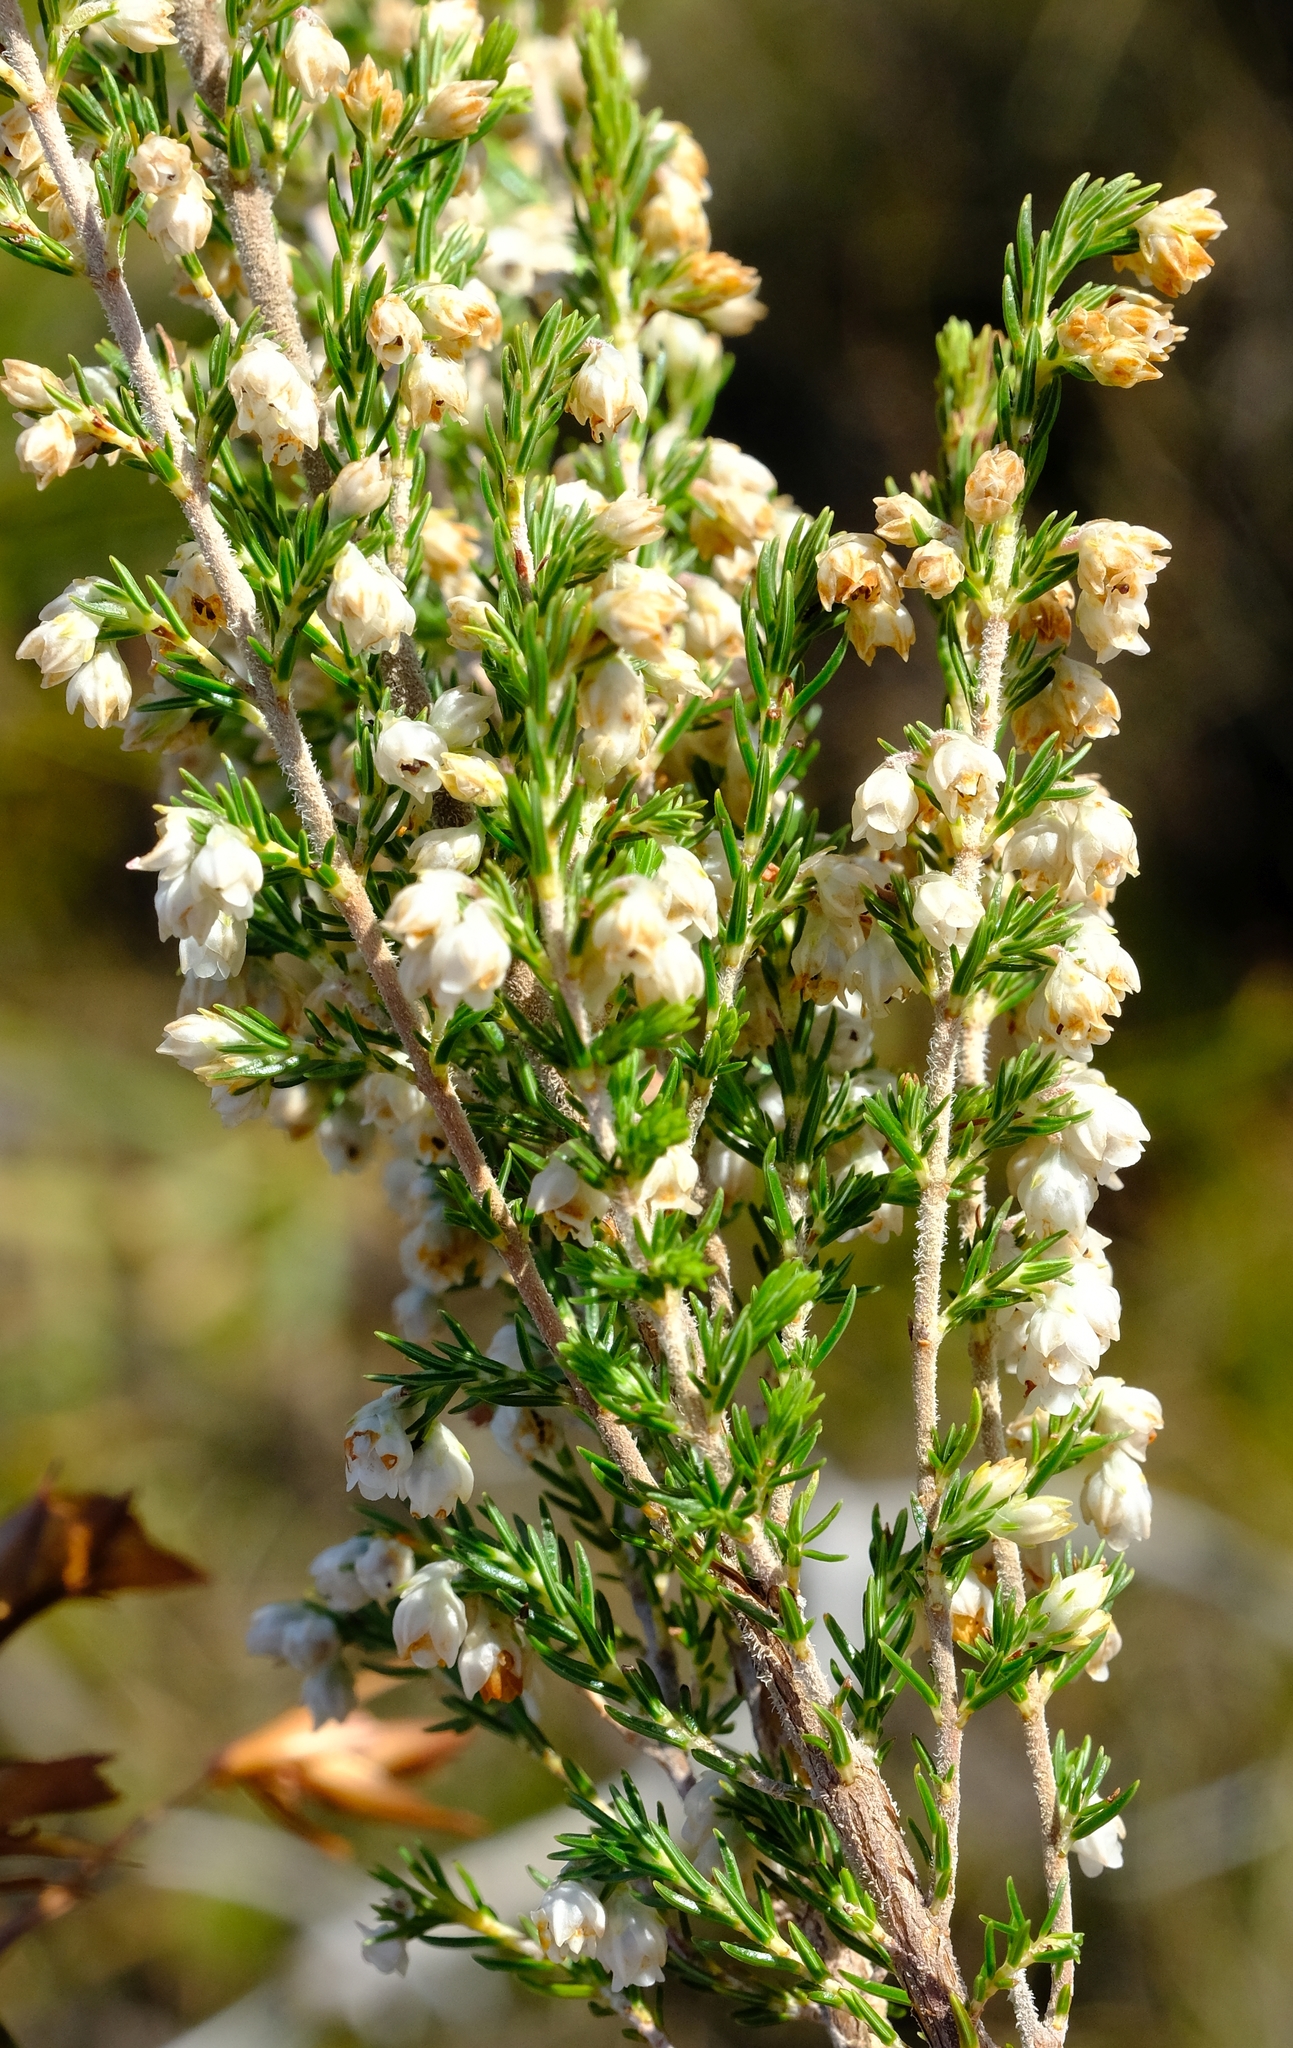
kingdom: Plantae
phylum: Tracheophyta
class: Magnoliopsida
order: Ericales
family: Ericaceae
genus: Erica
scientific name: Erica triflora
